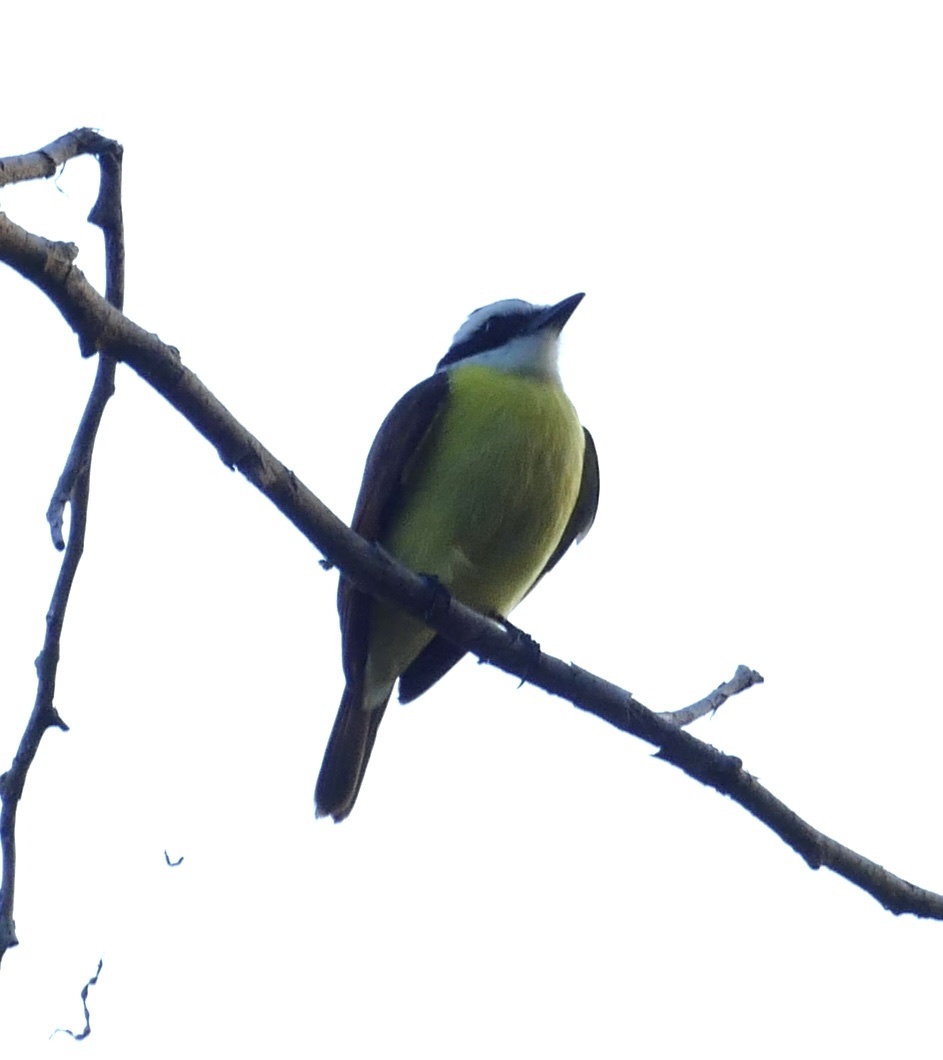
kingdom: Animalia
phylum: Chordata
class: Aves
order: Passeriformes
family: Tyrannidae
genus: Pitangus
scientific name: Pitangus sulphuratus
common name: Great kiskadee
